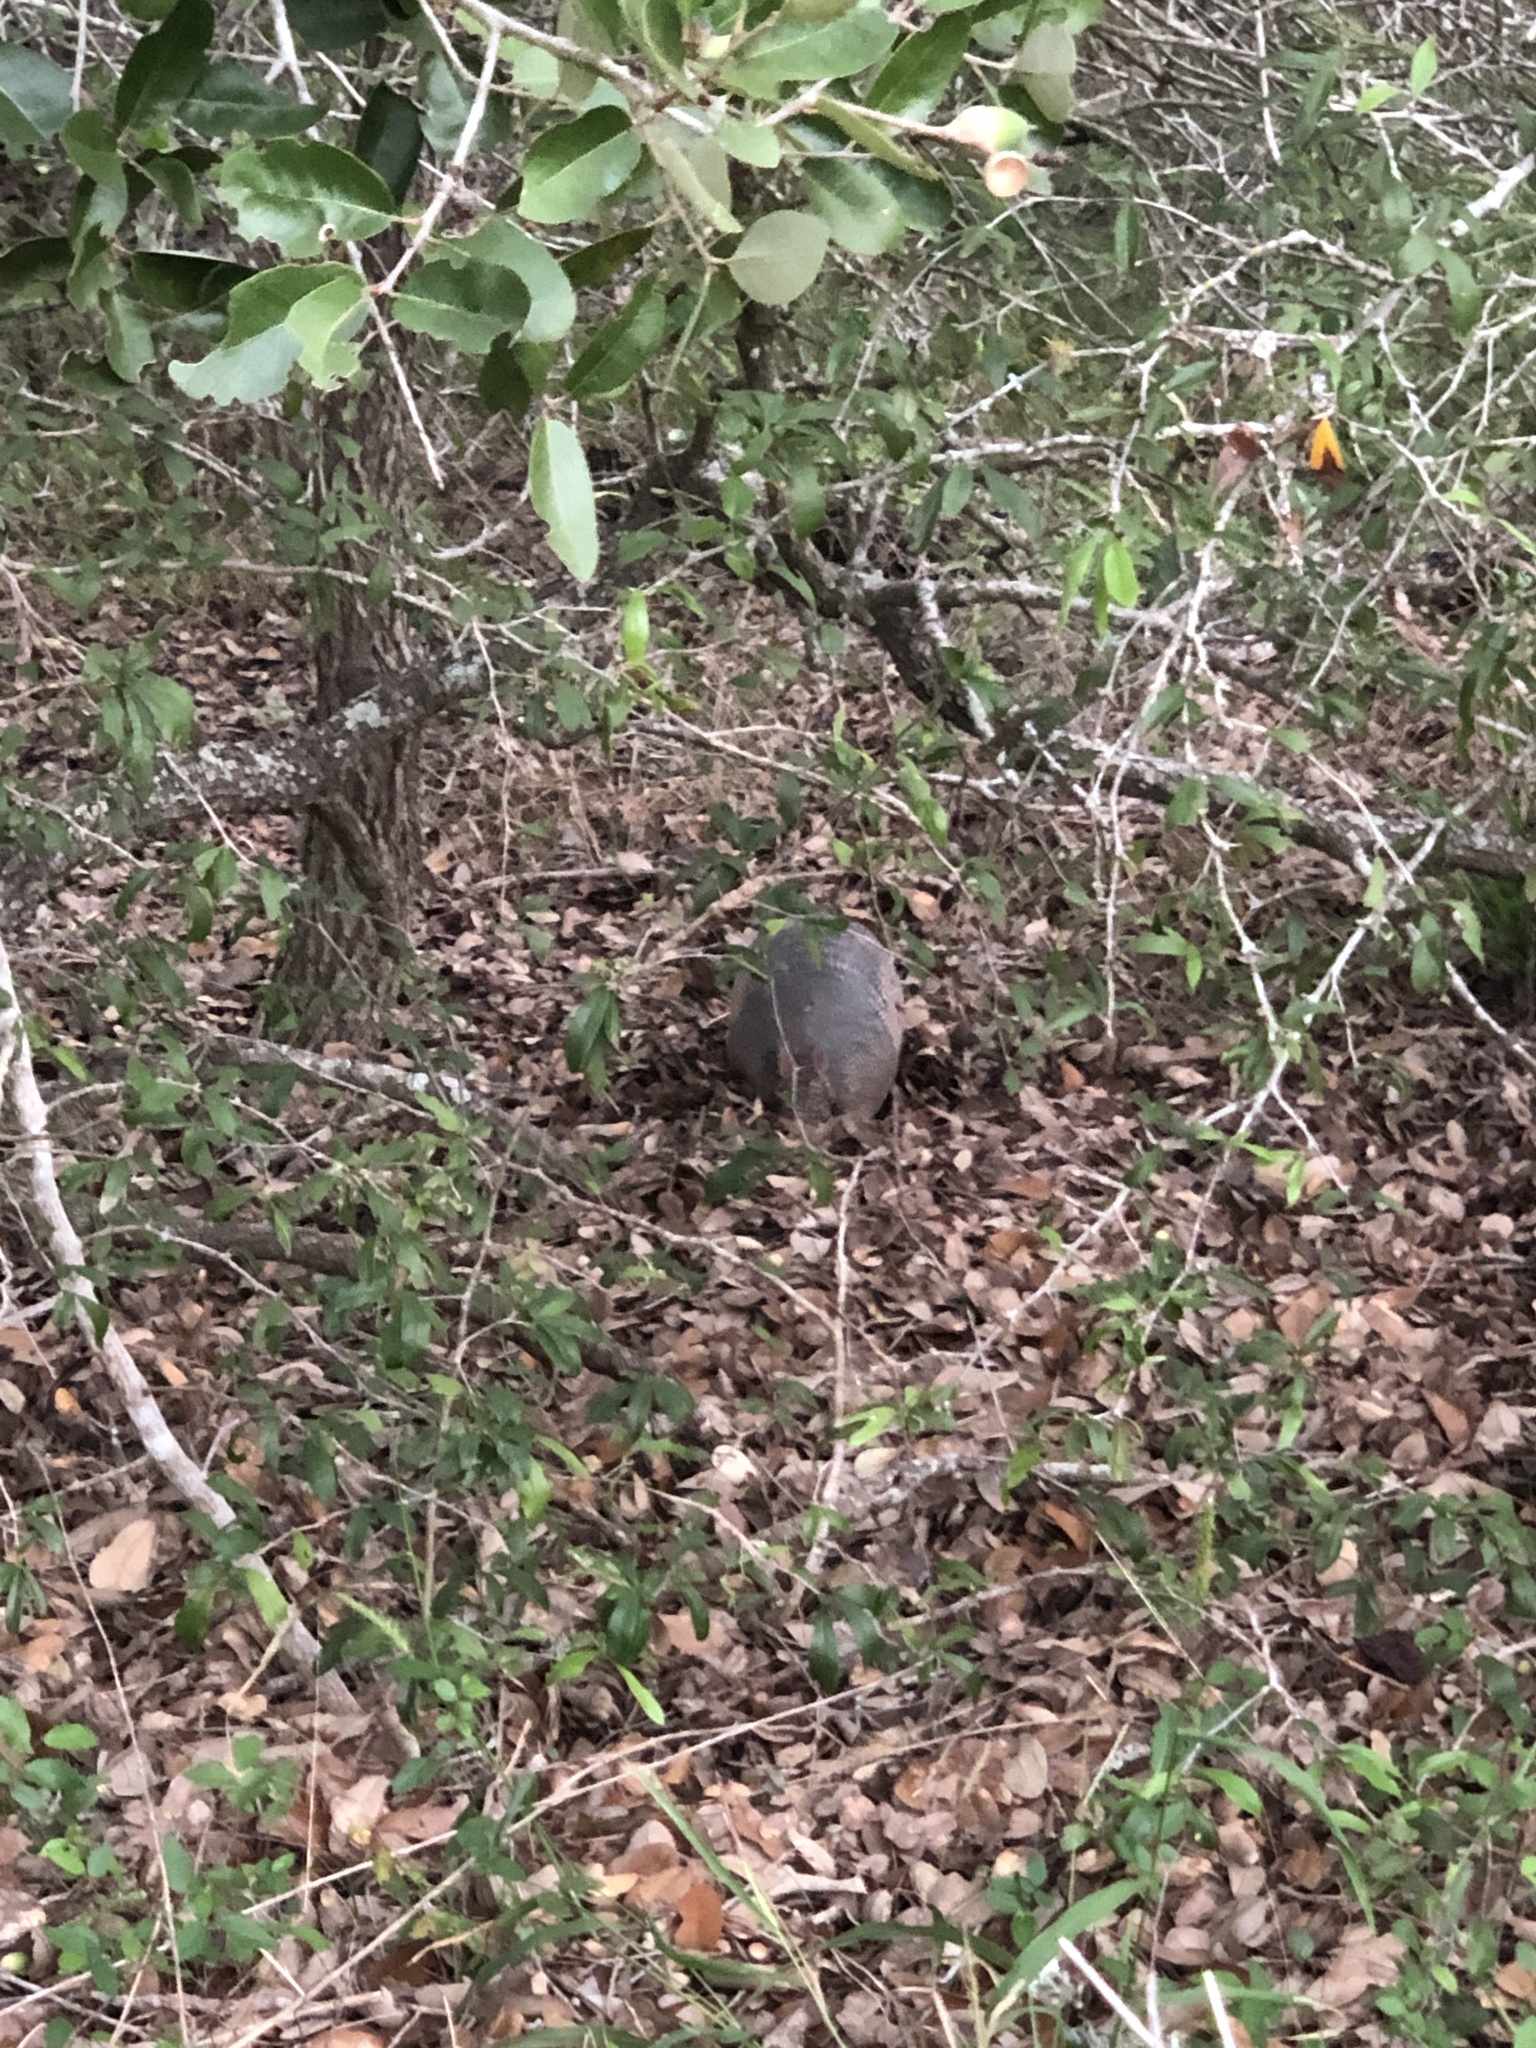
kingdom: Animalia
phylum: Chordata
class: Mammalia
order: Cingulata
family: Dasypodidae
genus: Dasypus
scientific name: Dasypus novemcinctus
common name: Nine-banded armadillo
